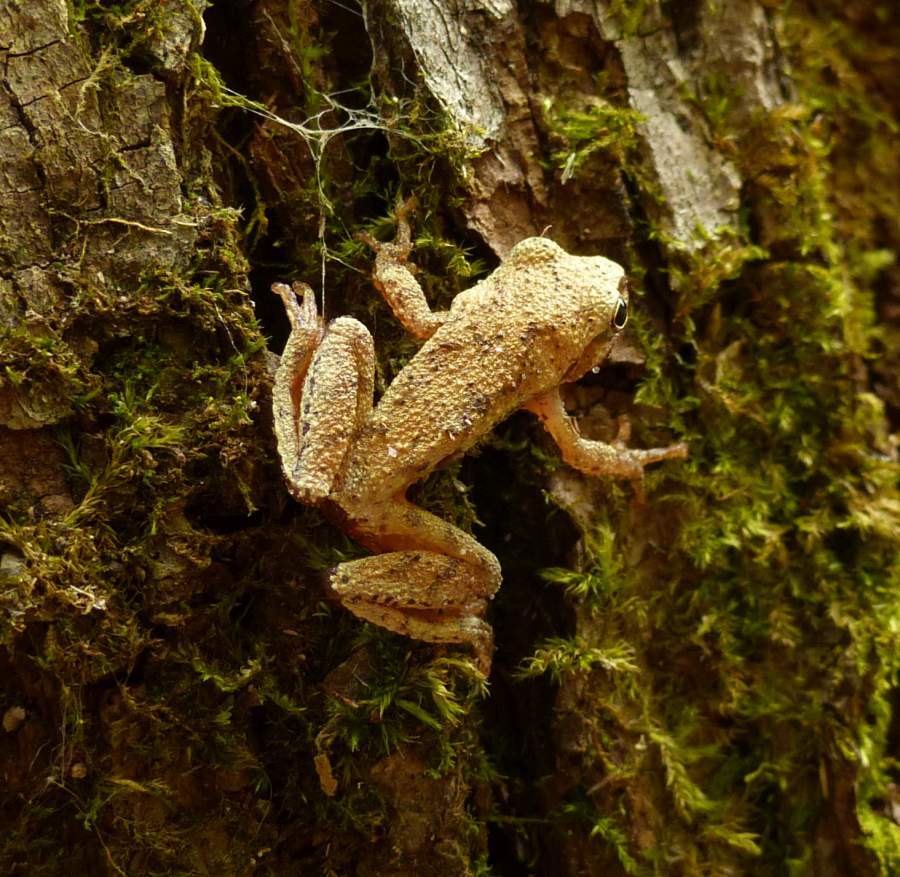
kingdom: Animalia
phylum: Chordata
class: Amphibia
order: Anura
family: Hylidae
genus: Pseudacris
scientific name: Pseudacris crucifer
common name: Spring peeper
